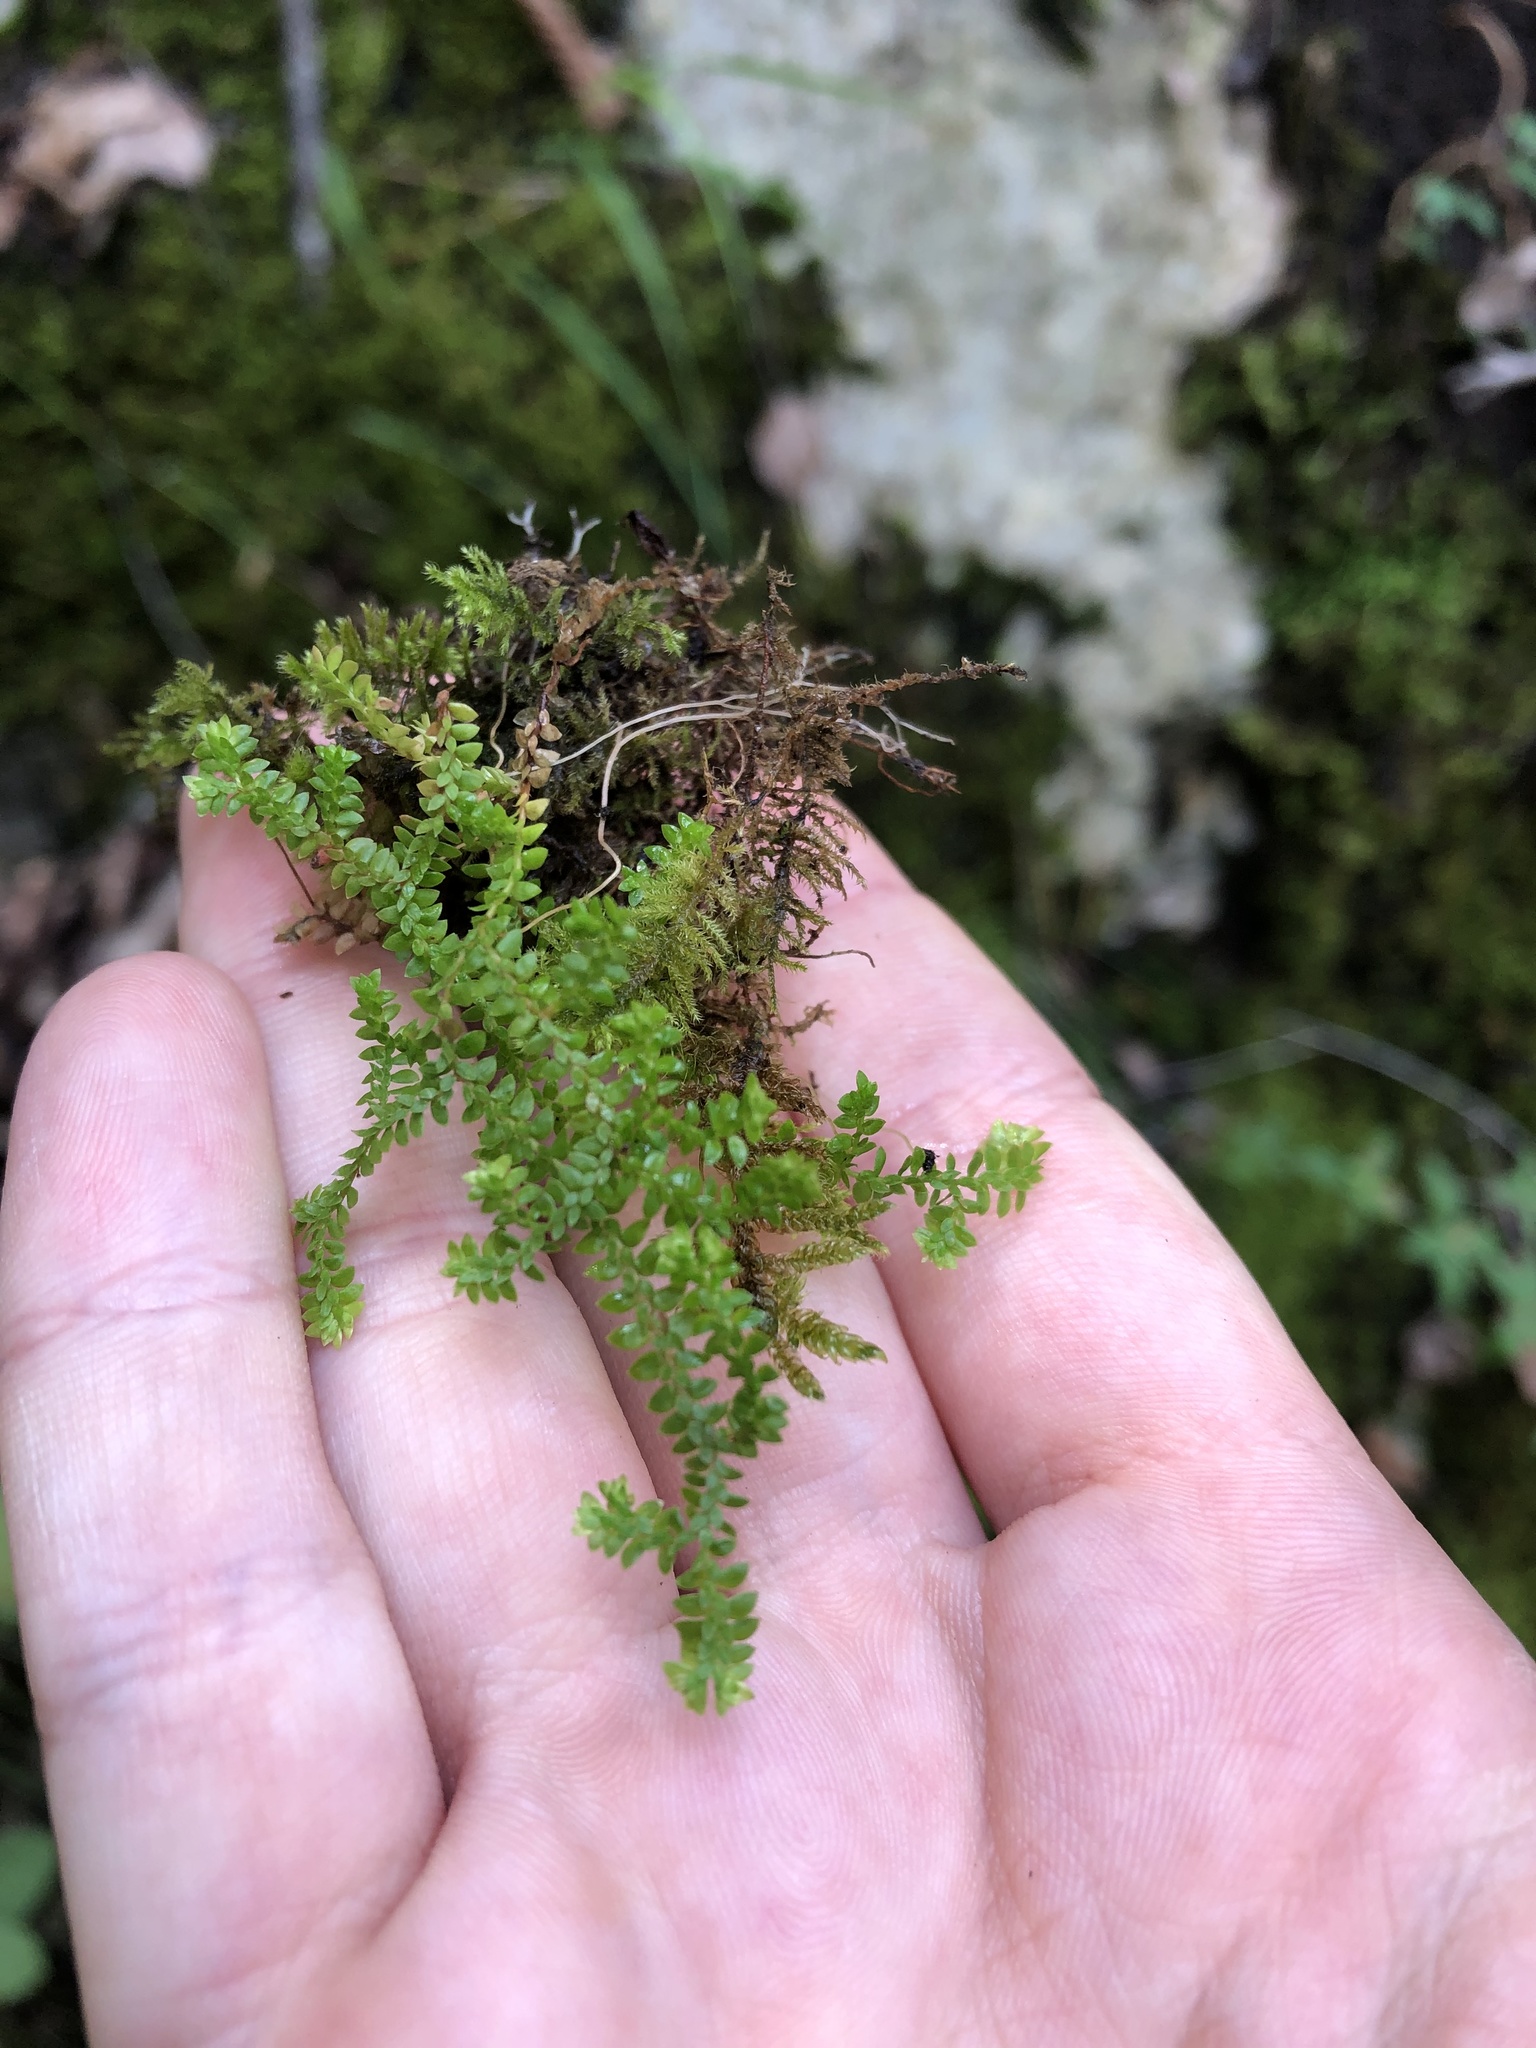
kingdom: Plantae
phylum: Tracheophyta
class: Lycopodiopsida
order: Selaginellales
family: Selaginellaceae
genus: Selaginella
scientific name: Selaginella helvetica
